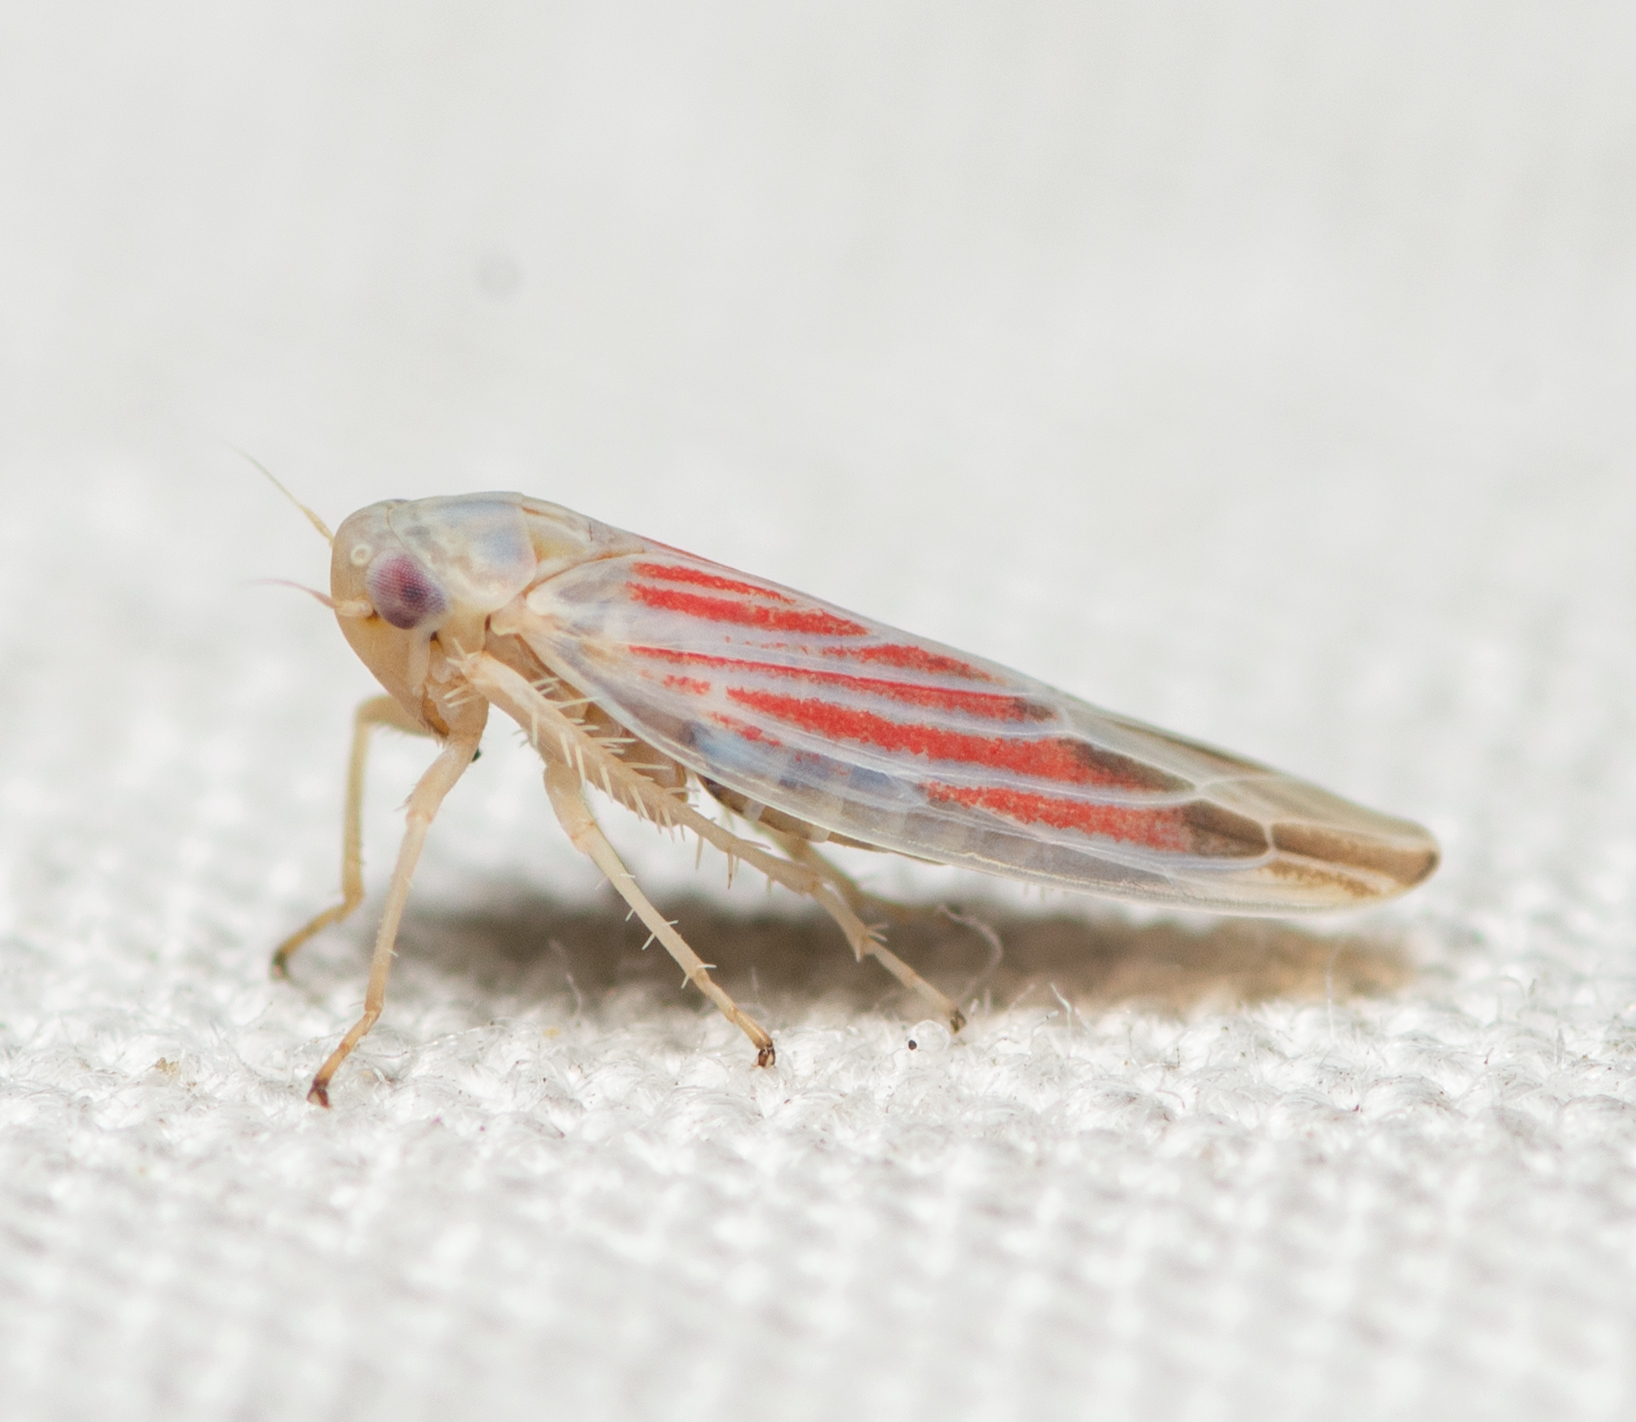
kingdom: Animalia
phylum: Arthropoda
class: Insecta
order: Hemiptera
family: Cicadellidae
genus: Balclutha
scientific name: Balclutha rubrostriata
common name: Red-streaked leafhopper
